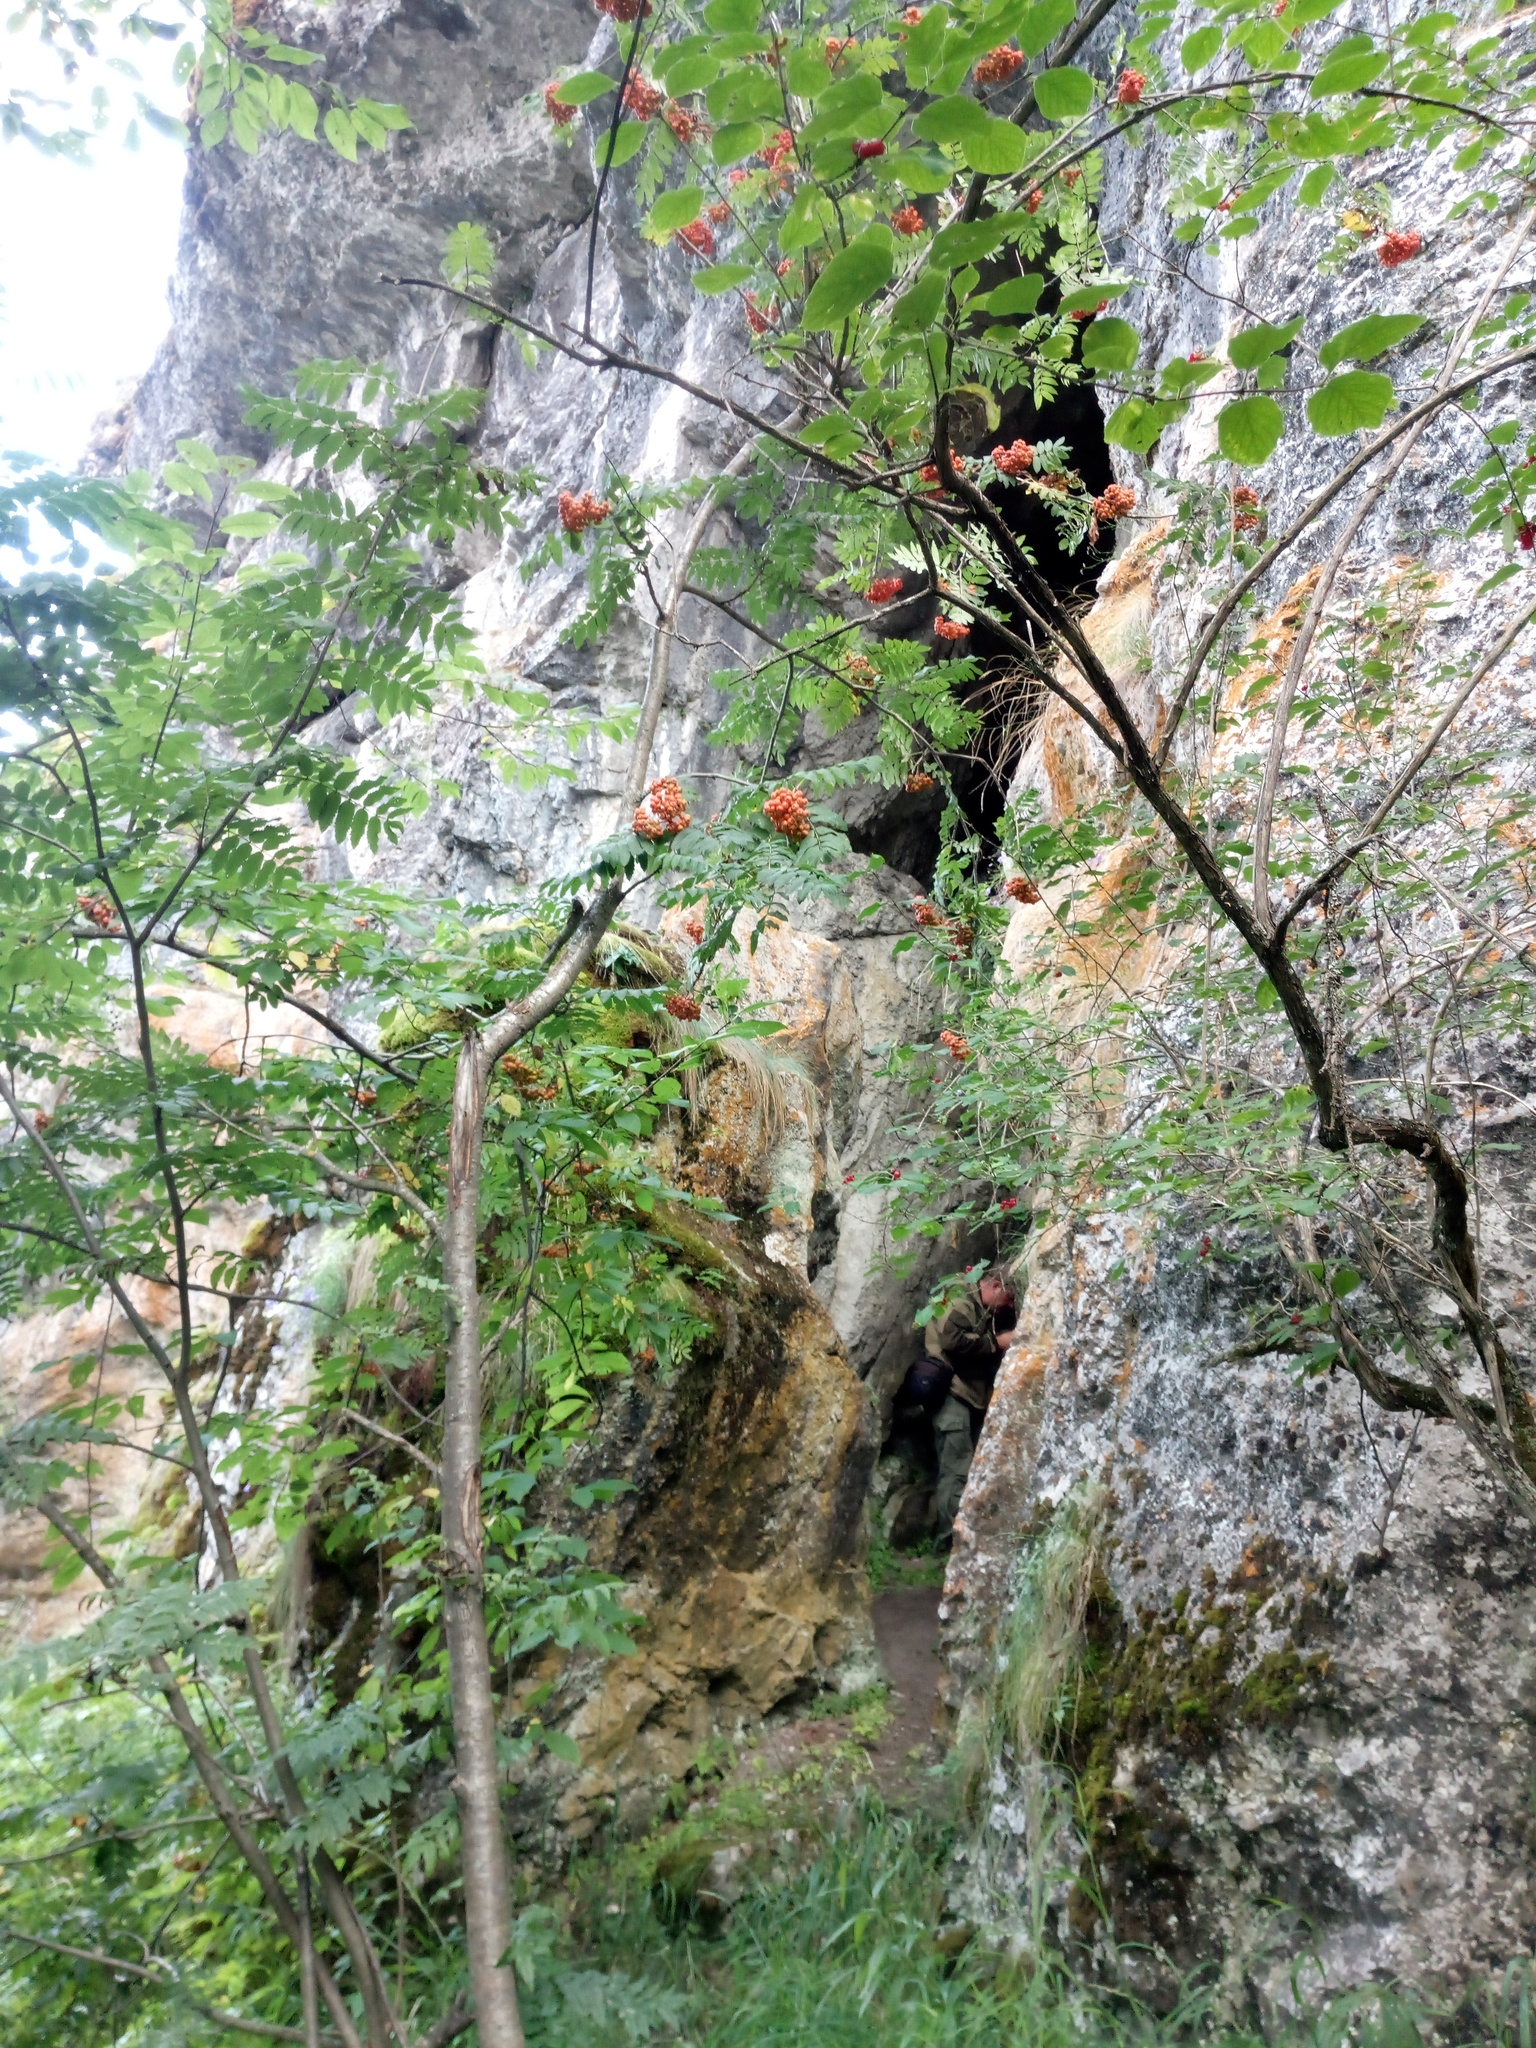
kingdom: Plantae
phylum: Tracheophyta
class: Magnoliopsida
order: Rosales
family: Rosaceae
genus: Sorbus
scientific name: Sorbus aucuparia
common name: Rowan
